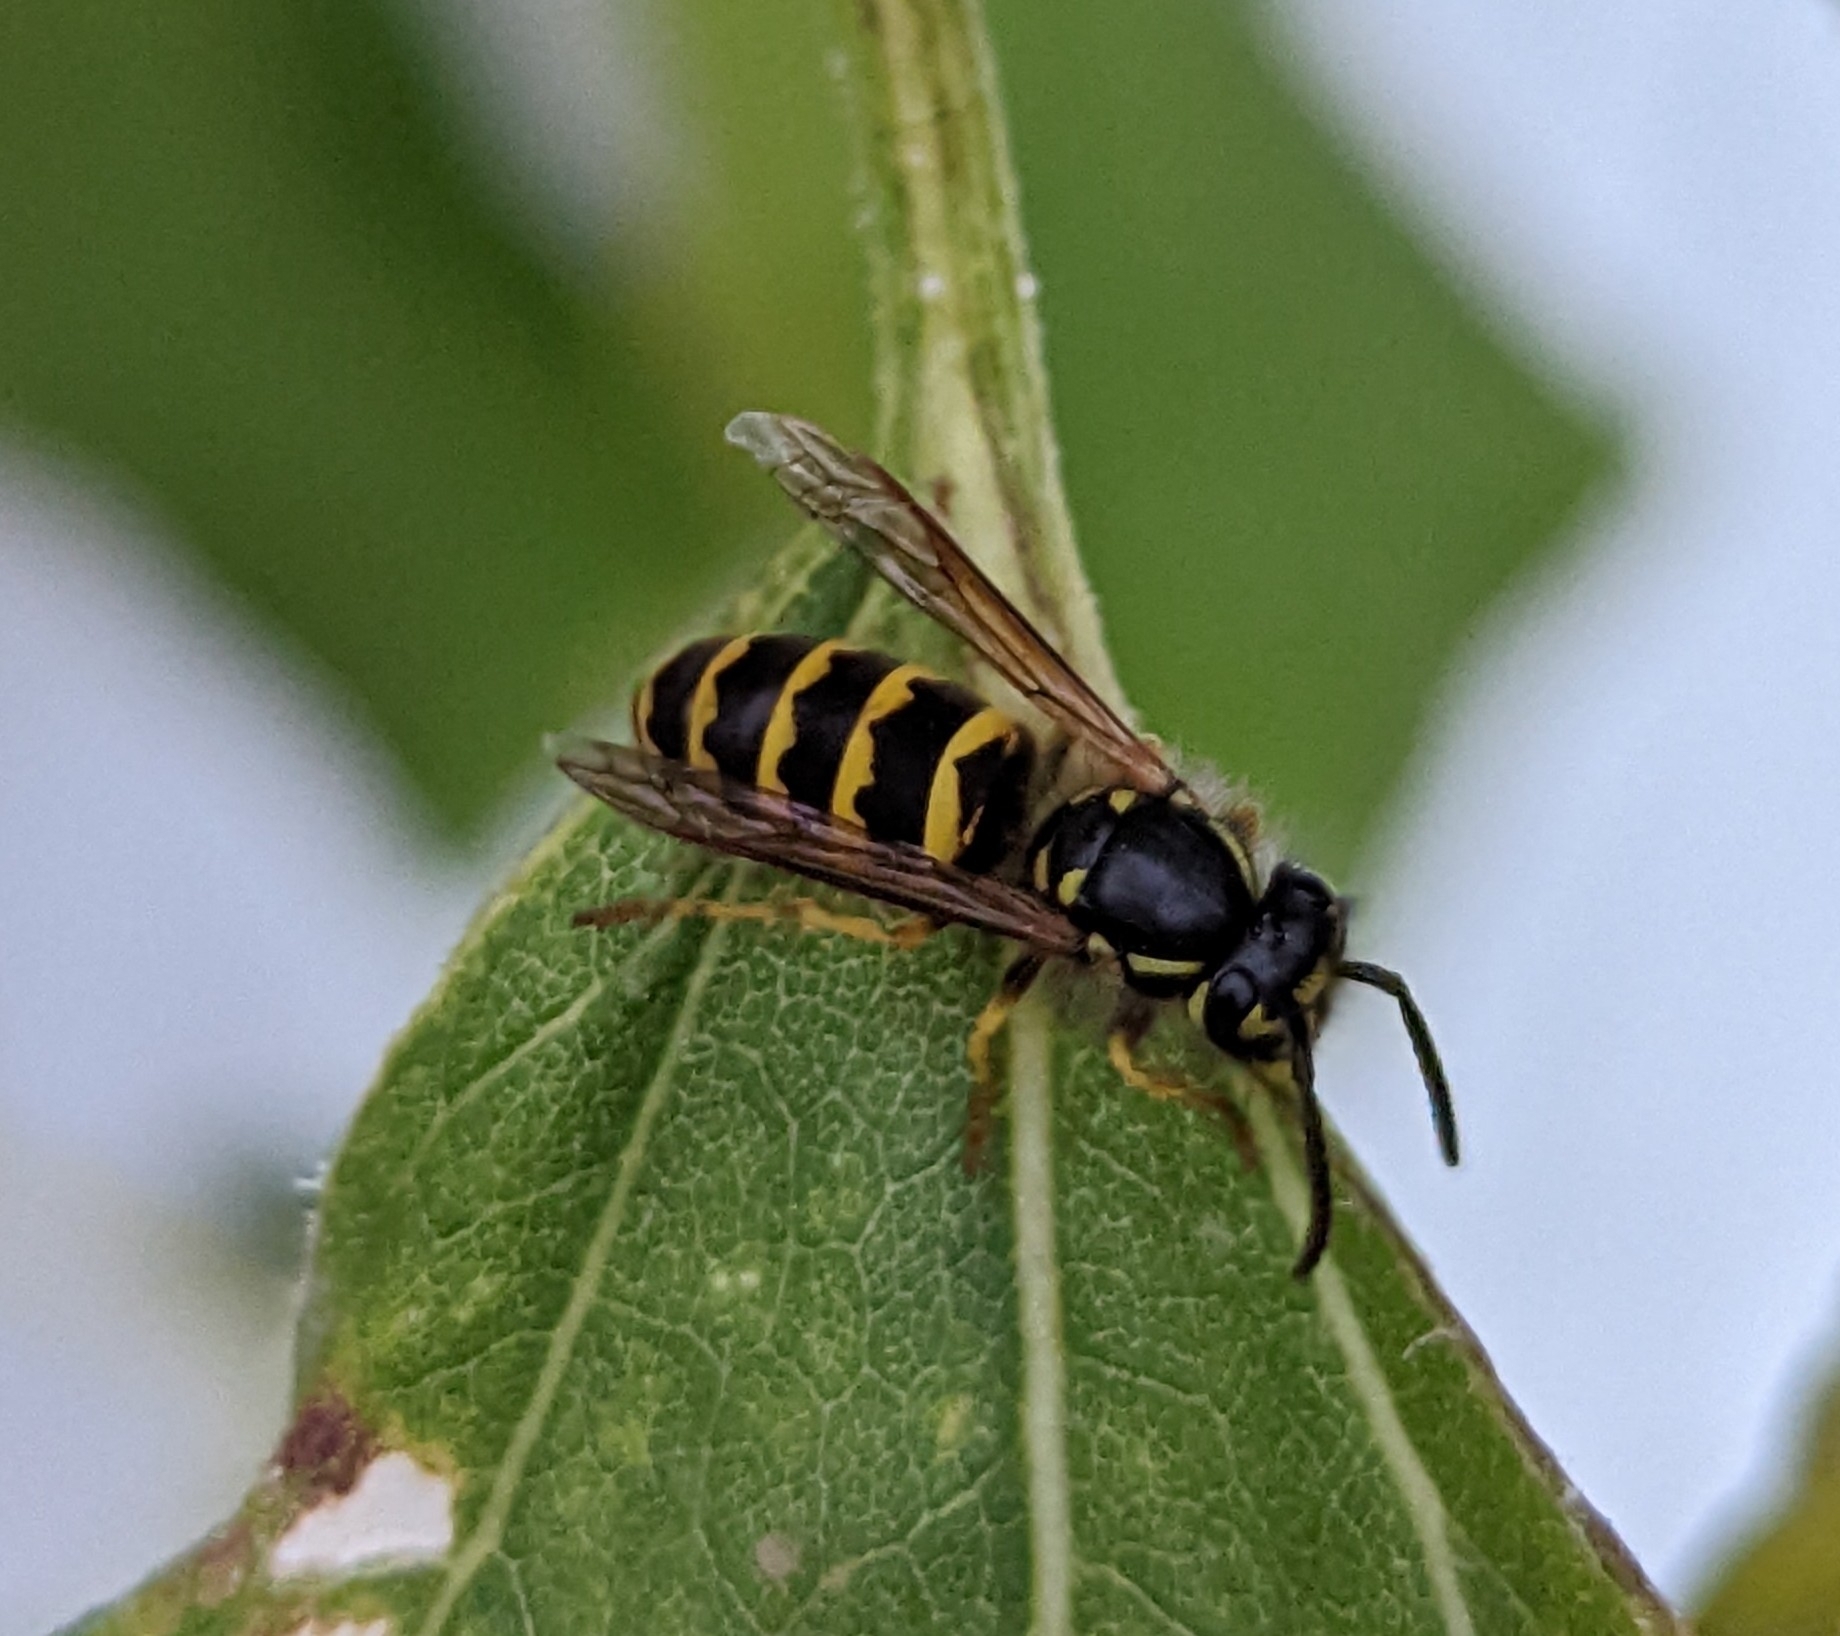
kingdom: Animalia
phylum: Arthropoda
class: Insecta
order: Hymenoptera
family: Vespidae
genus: Vespula
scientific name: Vespula alascensis
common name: Alaska yellowjacket
